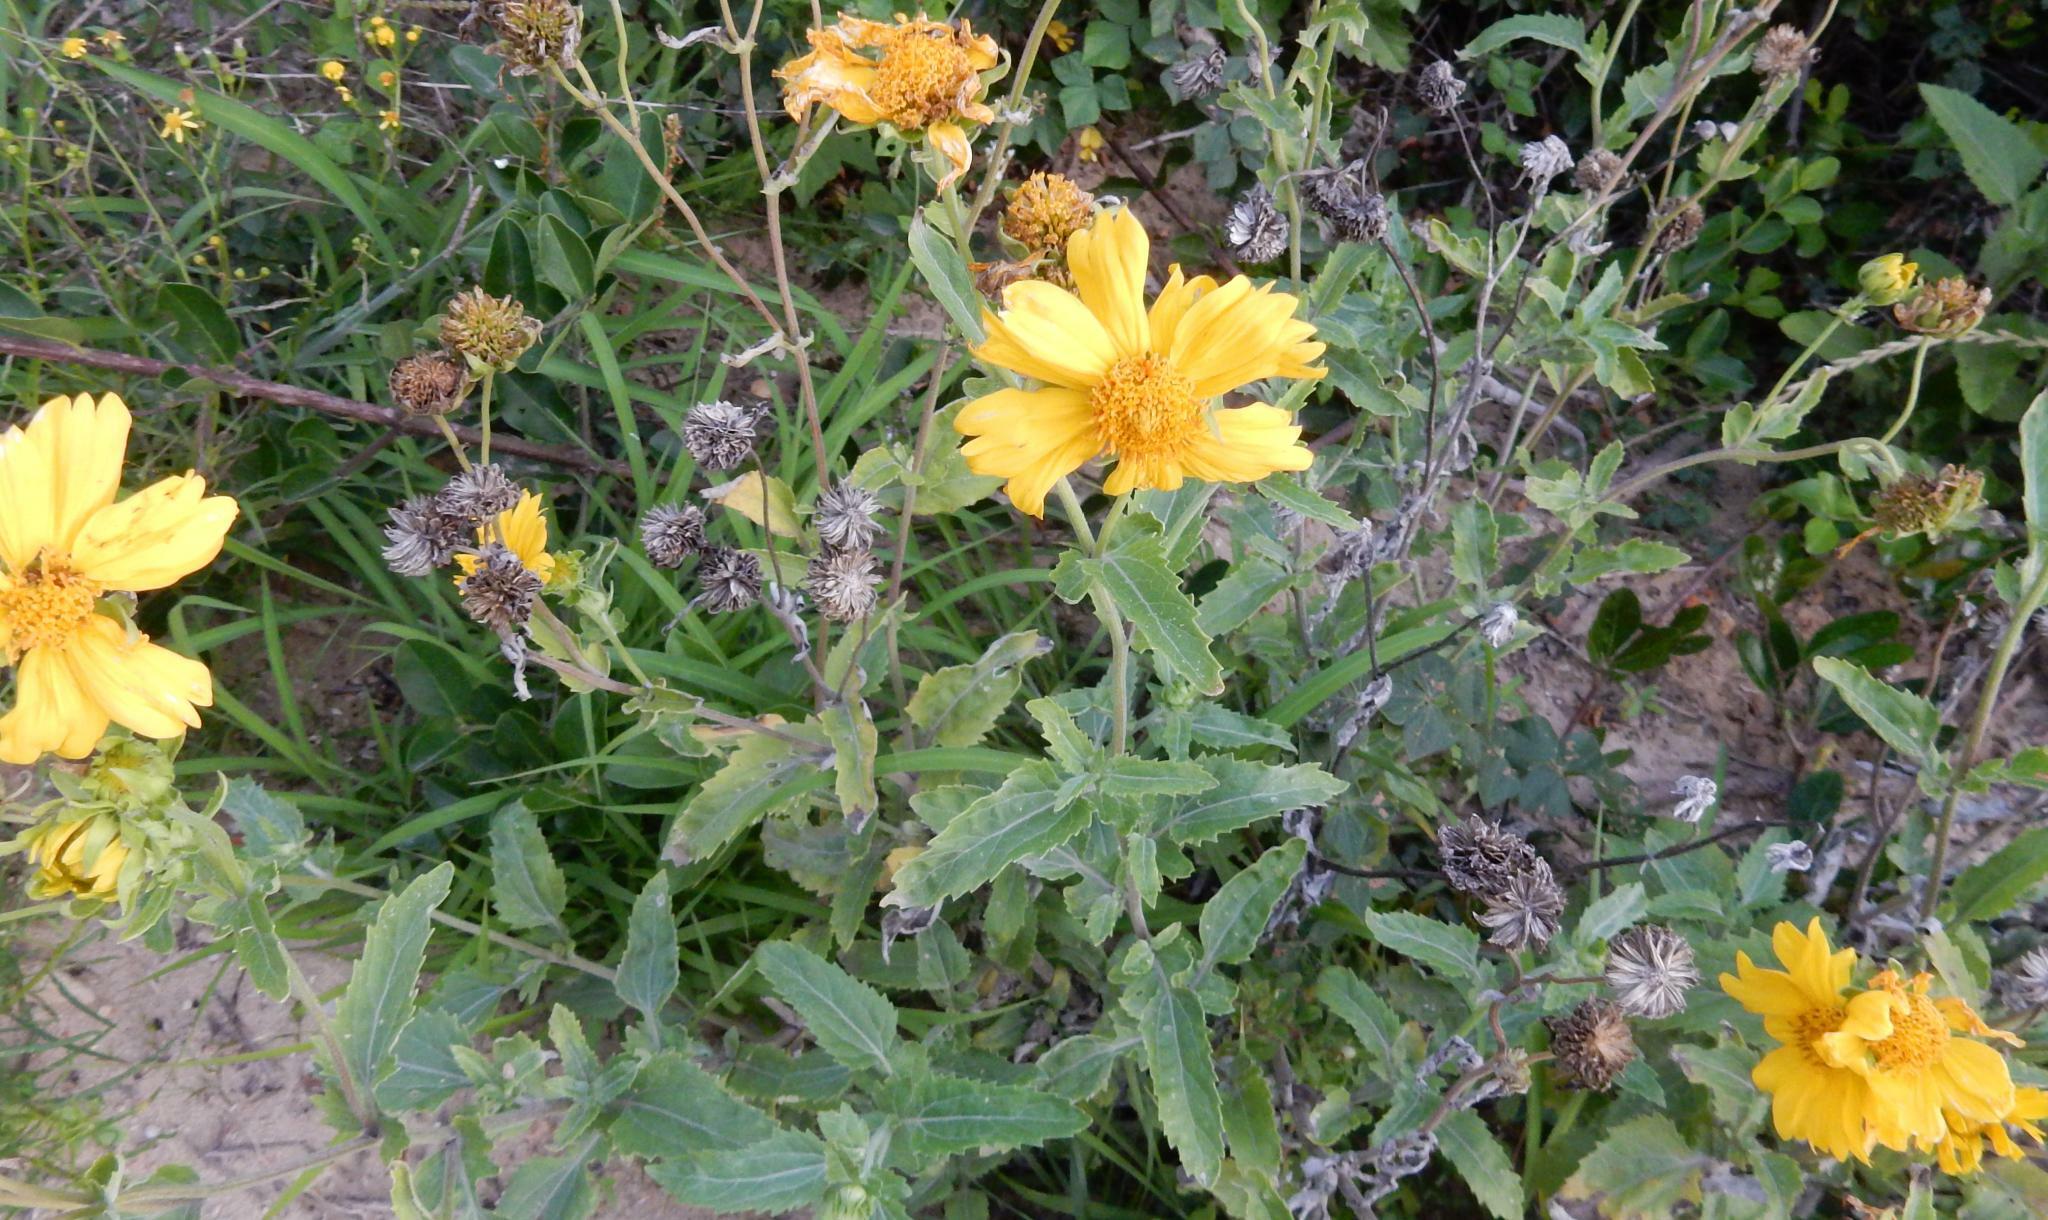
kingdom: Plantae
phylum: Tracheophyta
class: Magnoliopsida
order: Asterales
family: Asteraceae
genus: Verbesina
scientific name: Verbesina encelioides
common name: Golden crownbeard
